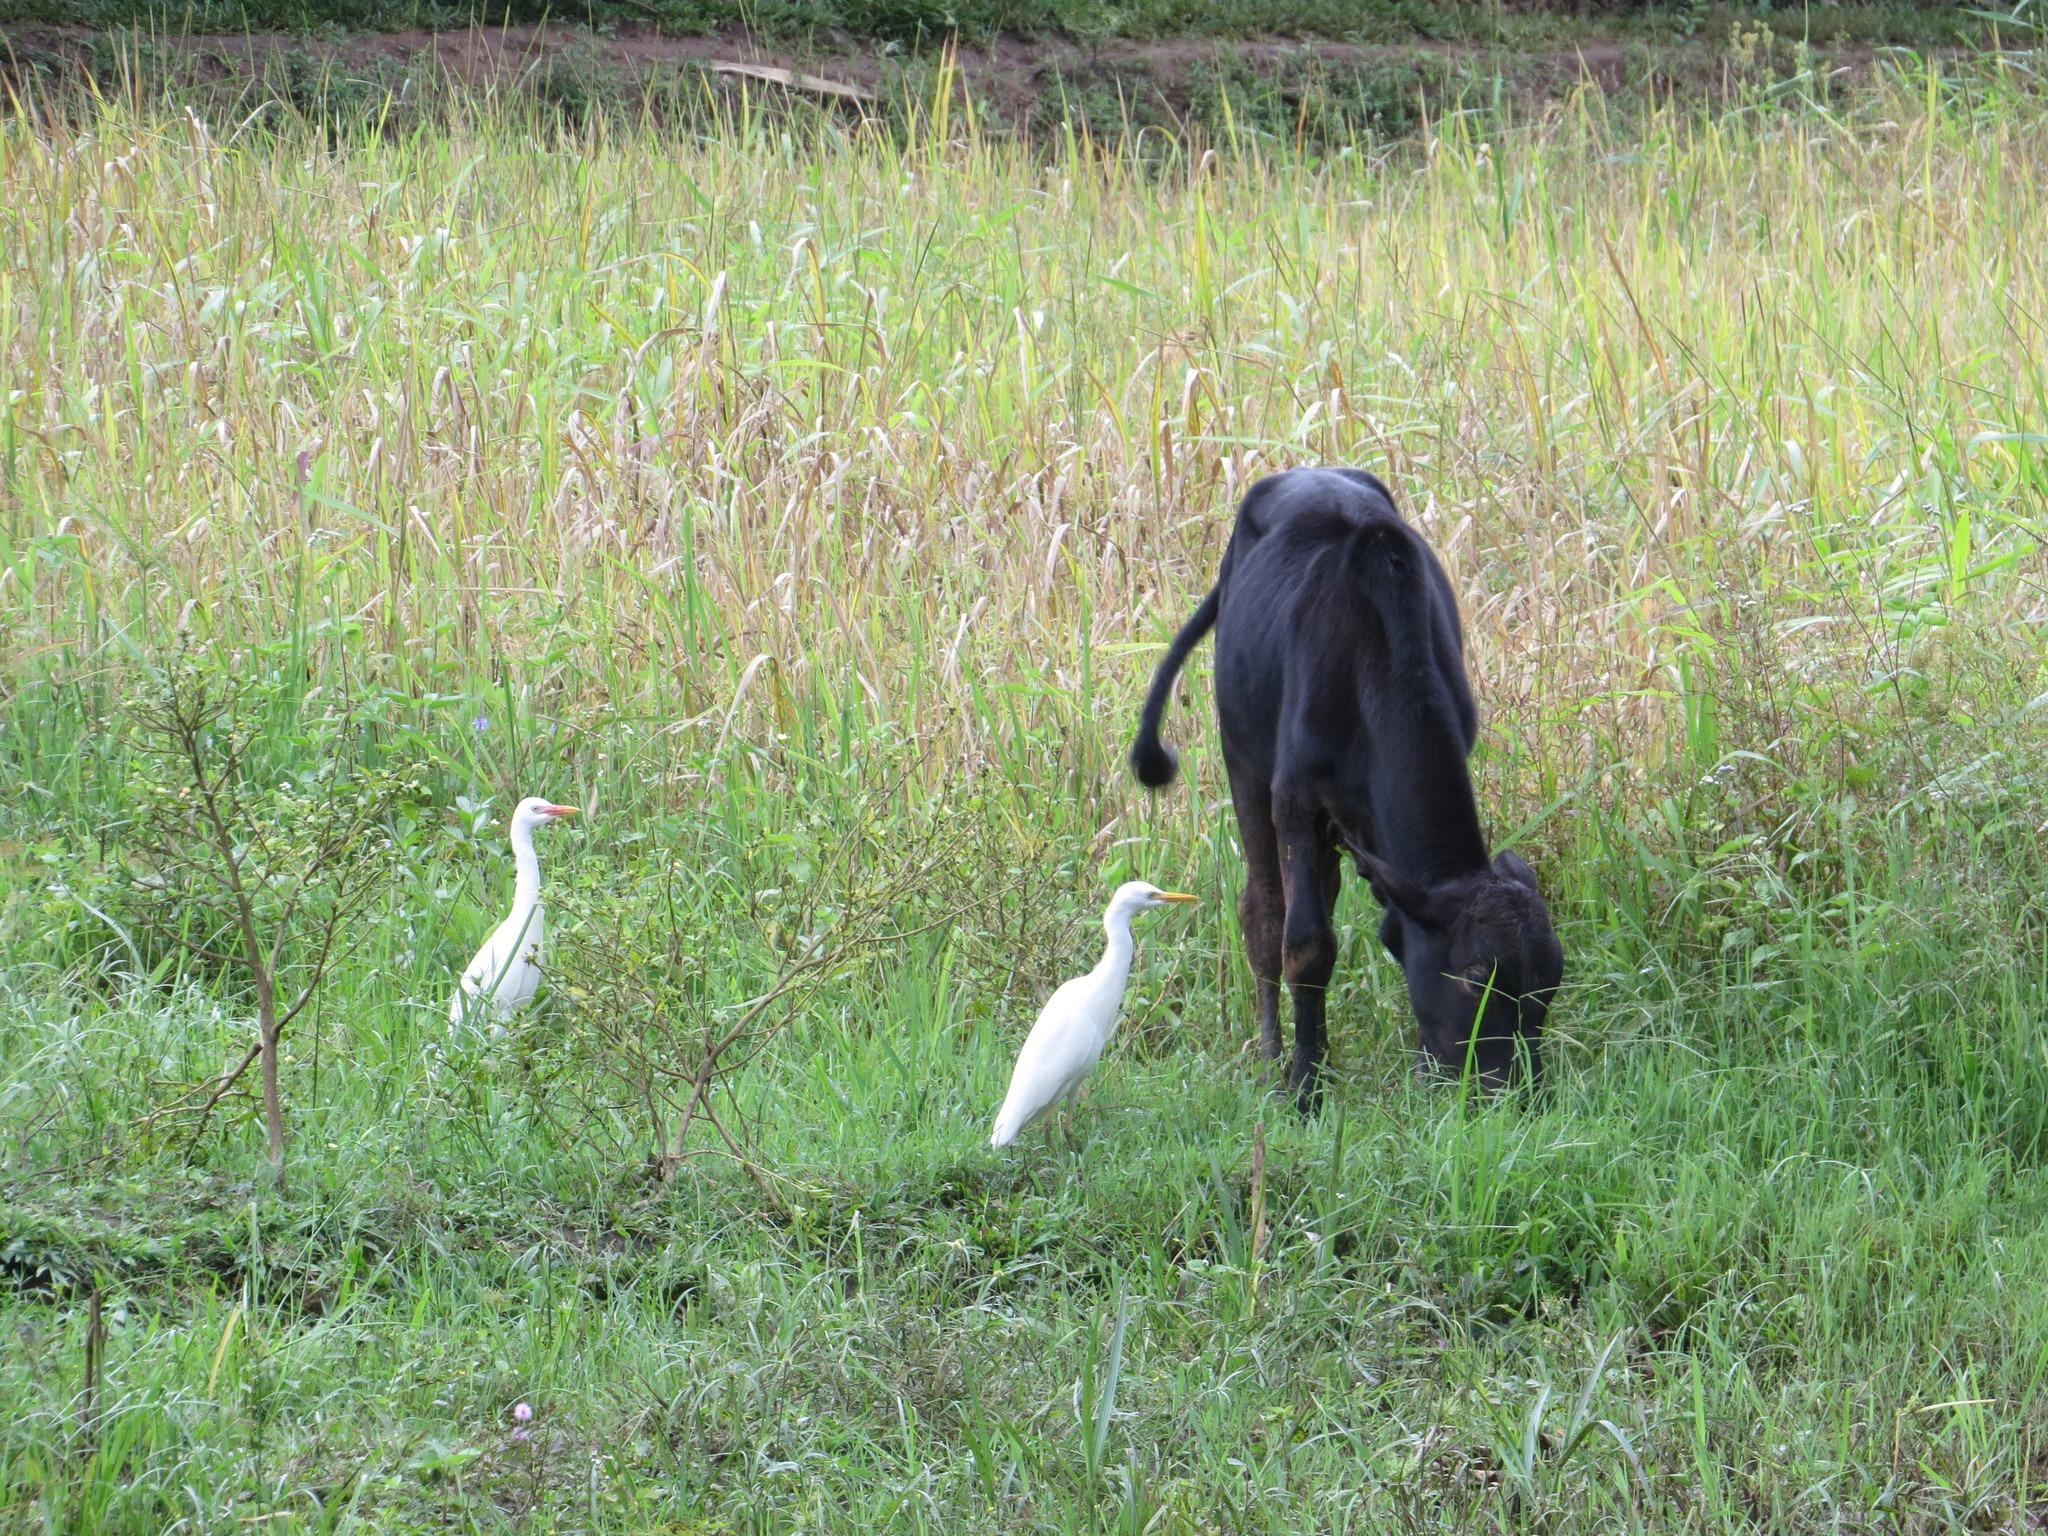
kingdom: Animalia
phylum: Chordata
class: Aves
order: Pelecaniformes
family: Ardeidae
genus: Bubulcus
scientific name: Bubulcus ibis
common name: Cattle egret
